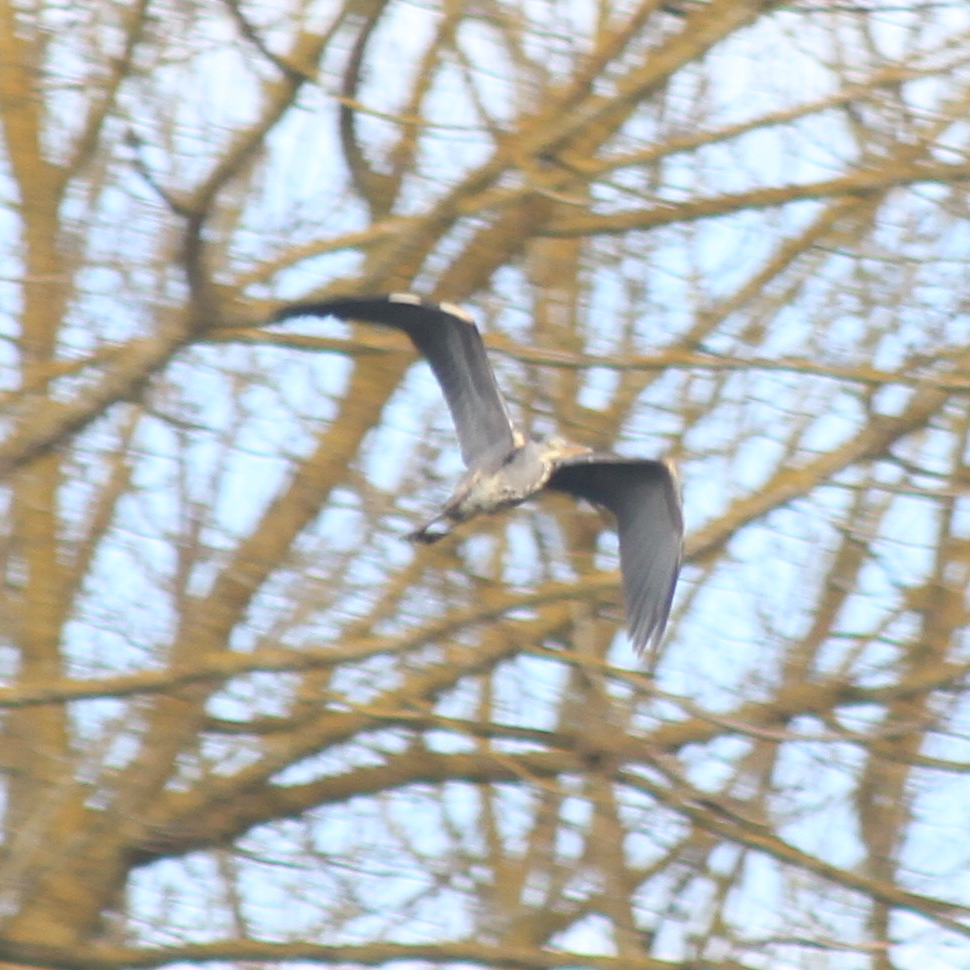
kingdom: Animalia
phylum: Chordata
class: Aves
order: Pelecaniformes
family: Ardeidae
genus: Ardea
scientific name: Ardea cinerea
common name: Grey heron
